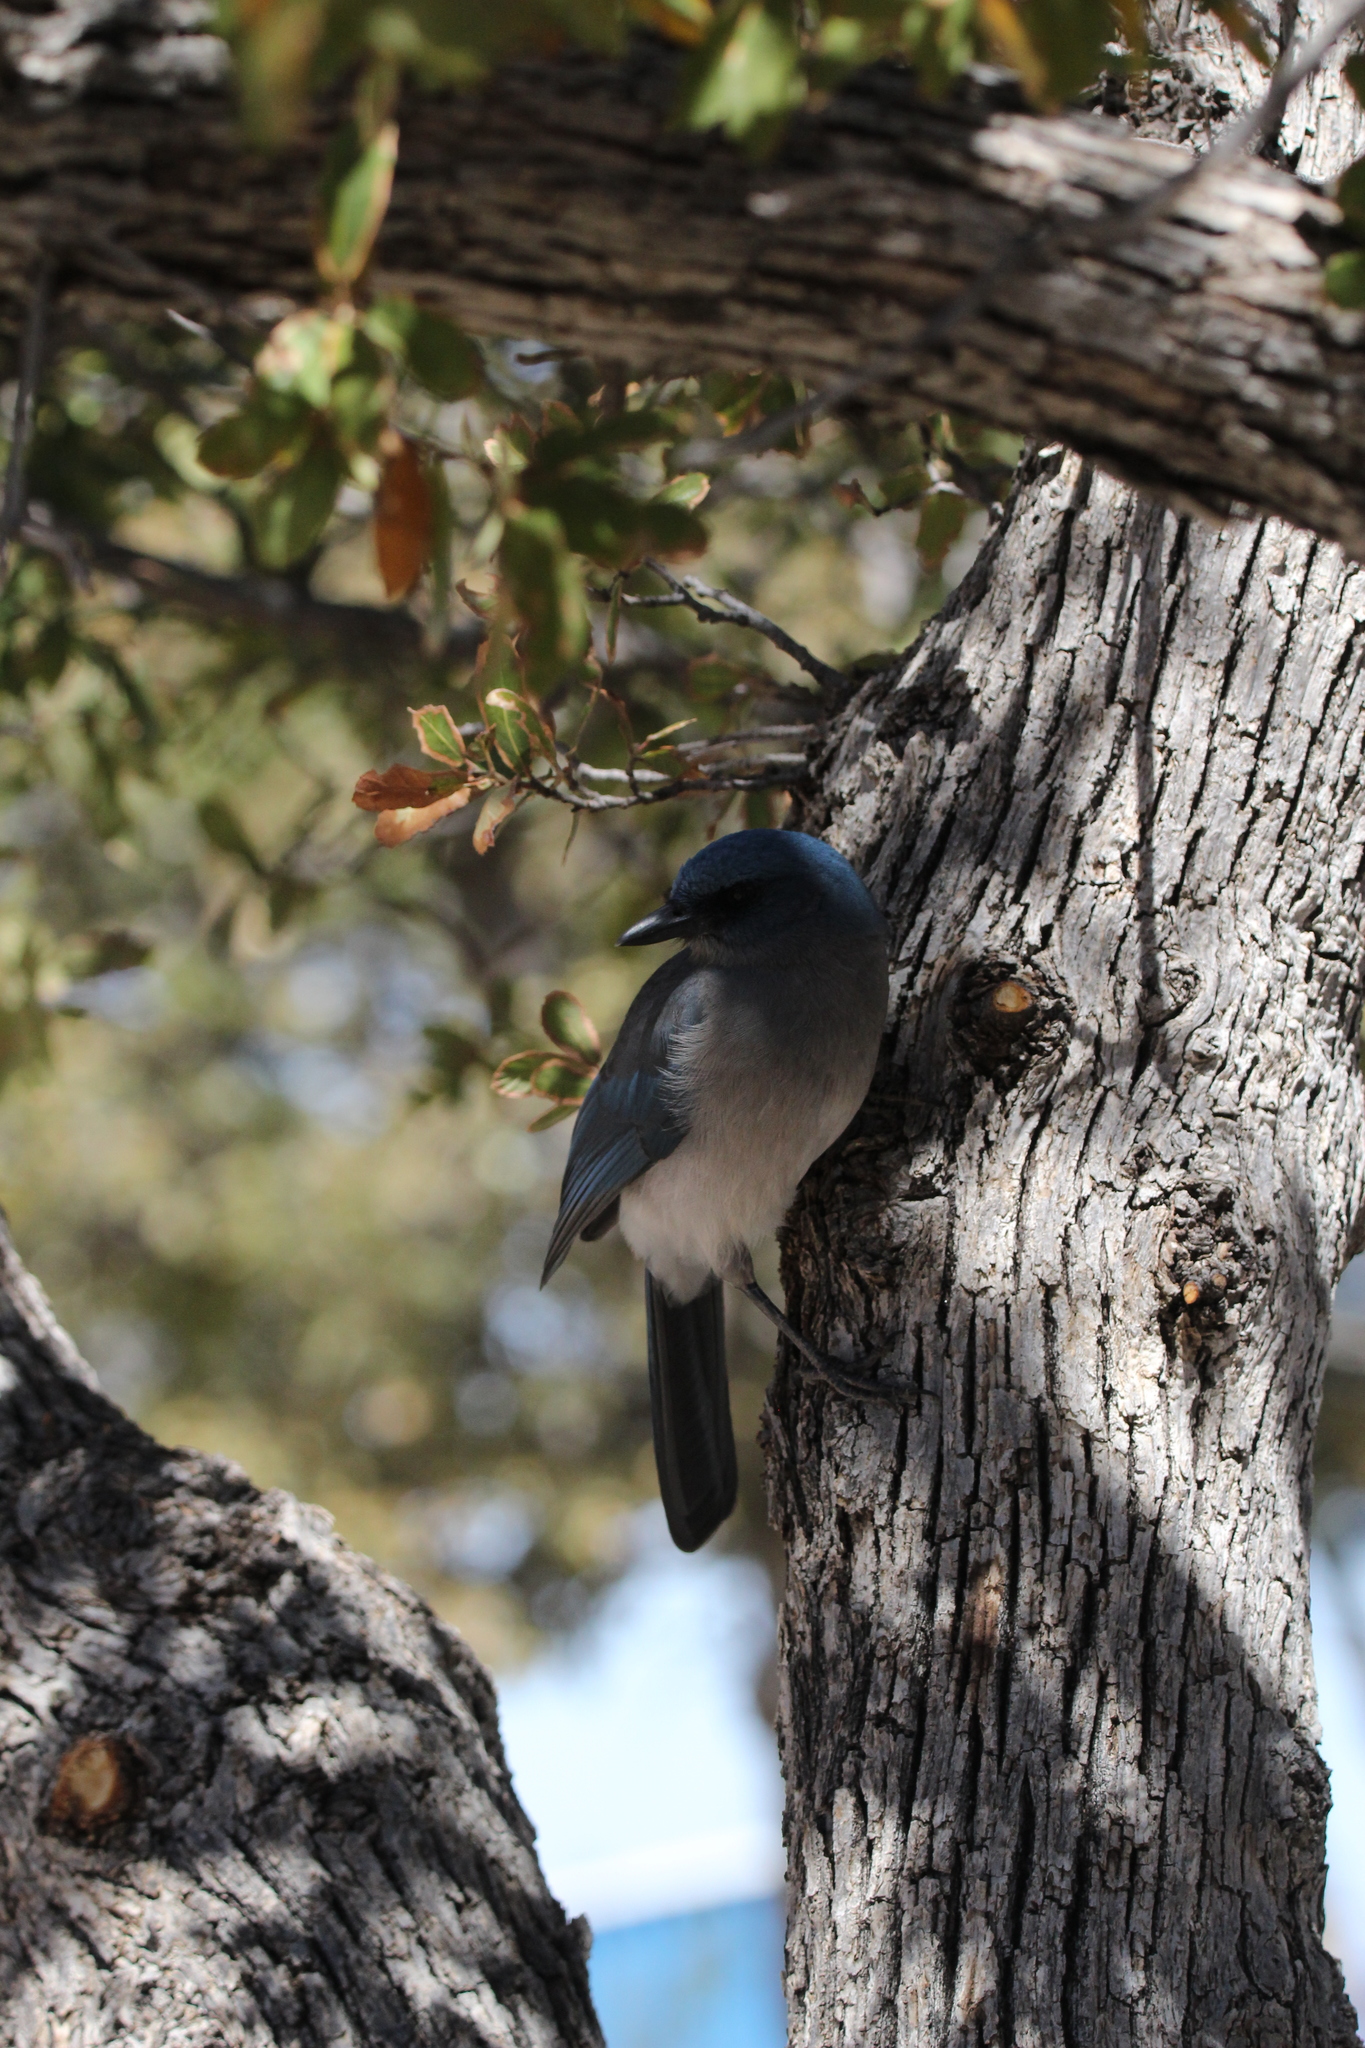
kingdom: Animalia
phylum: Chordata
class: Aves
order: Passeriformes
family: Corvidae
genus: Aphelocoma
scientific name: Aphelocoma wollweberi
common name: Mexican jay
